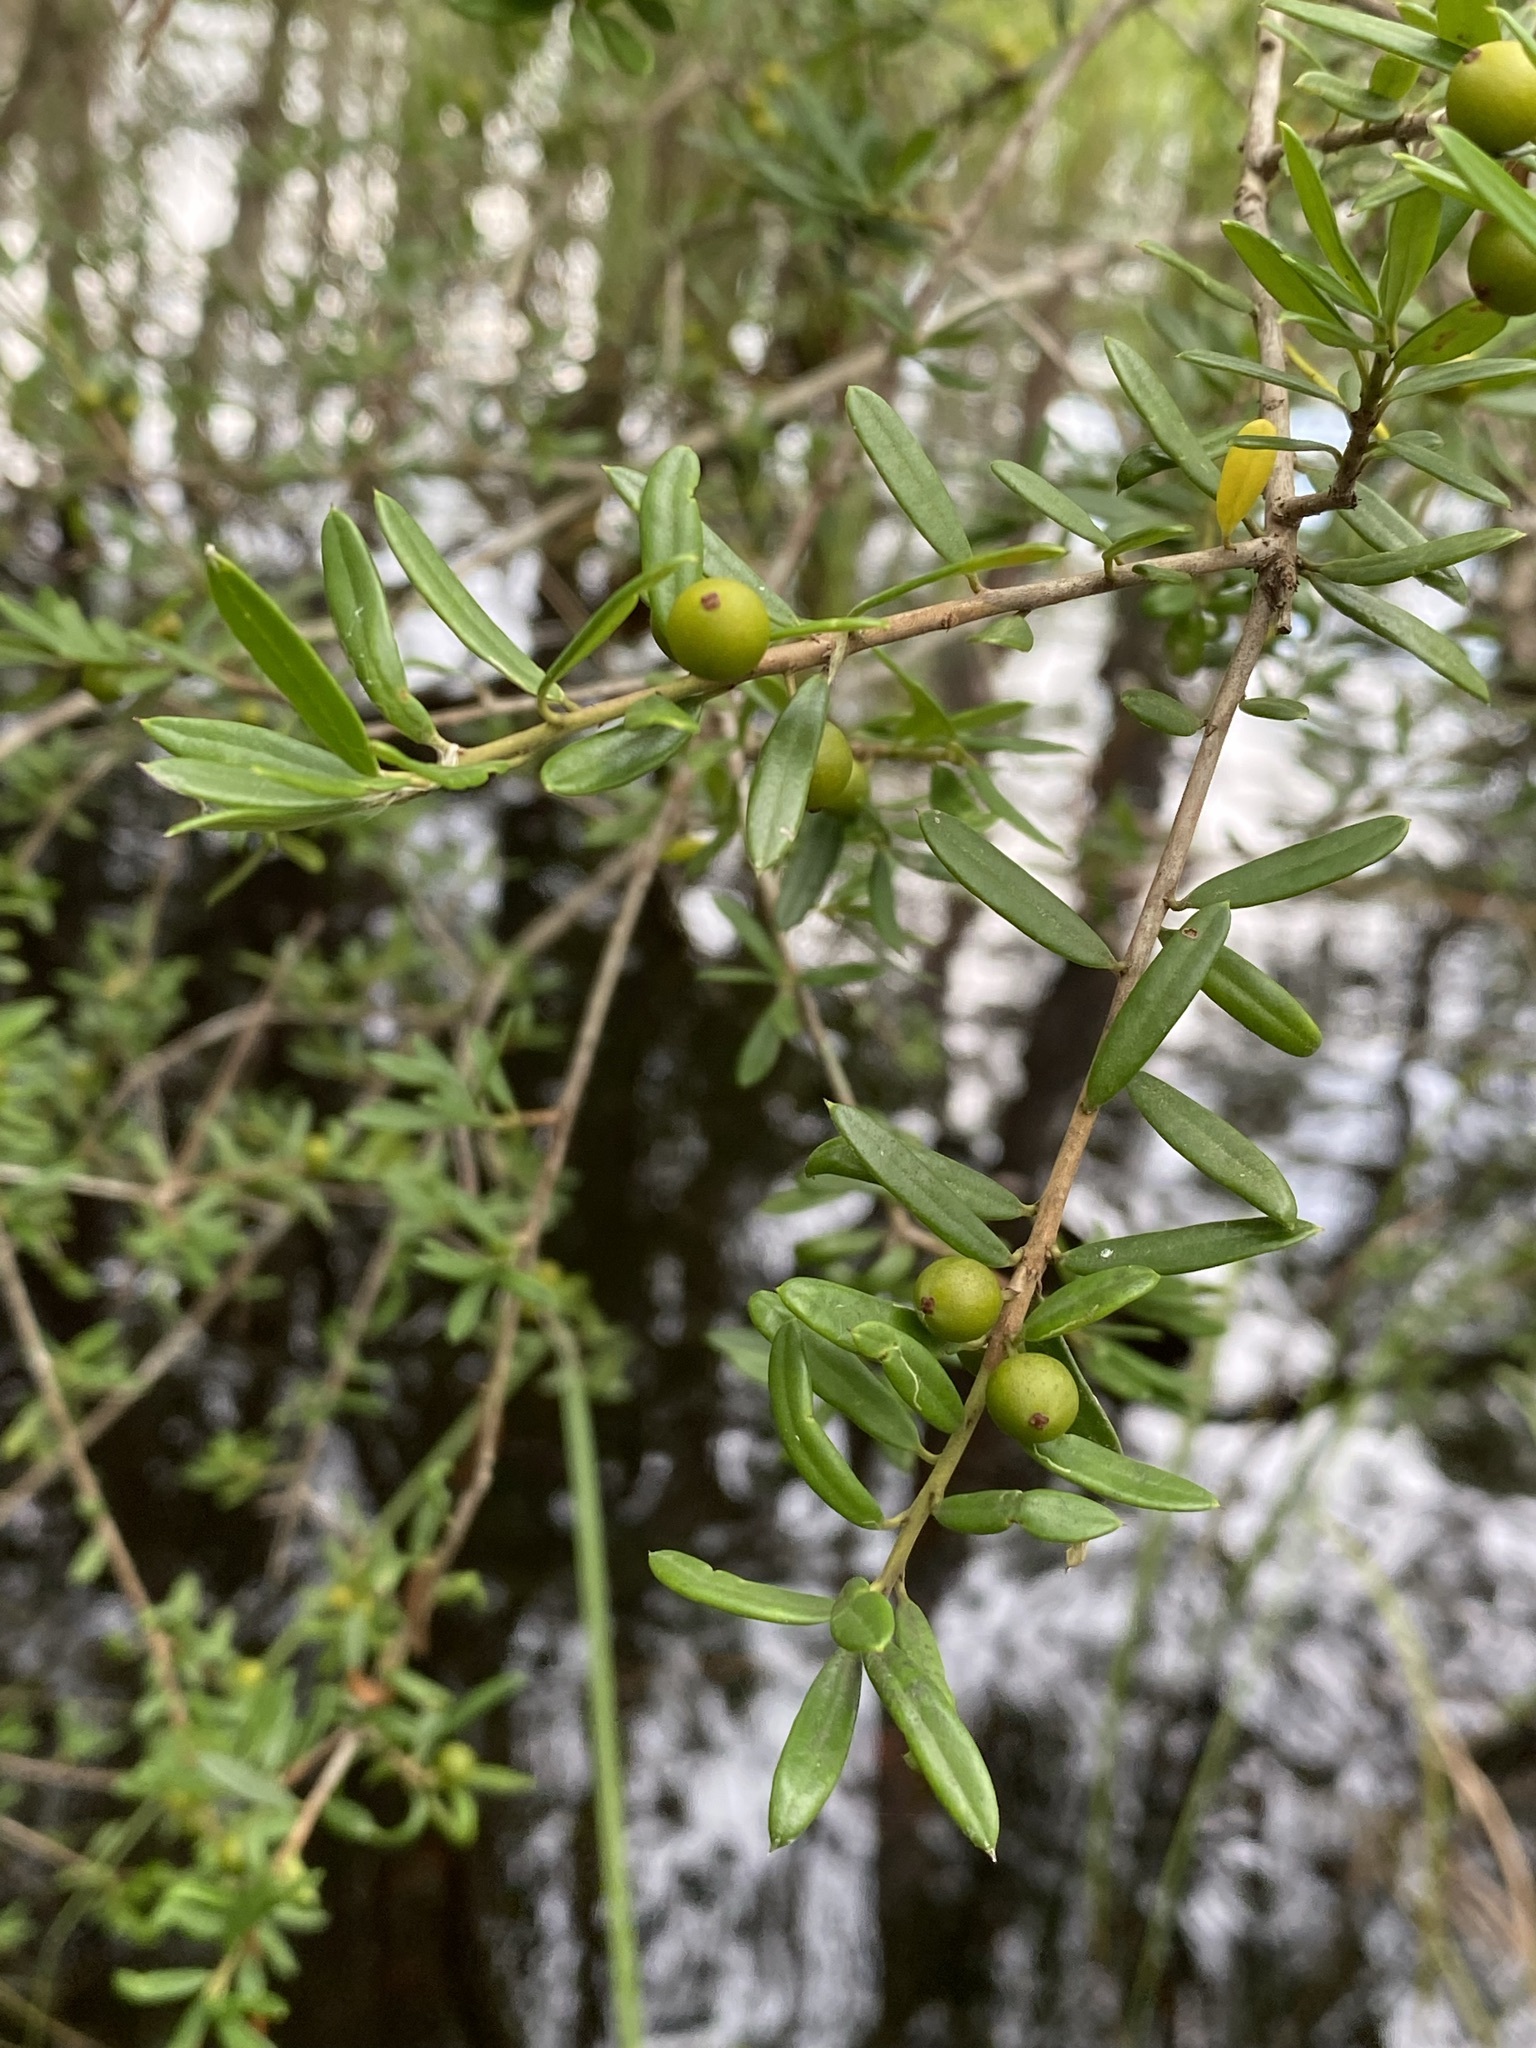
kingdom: Plantae
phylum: Tracheophyta
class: Magnoliopsida
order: Aquifoliales
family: Aquifoliaceae
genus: Ilex
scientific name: Ilex myrtifolia
